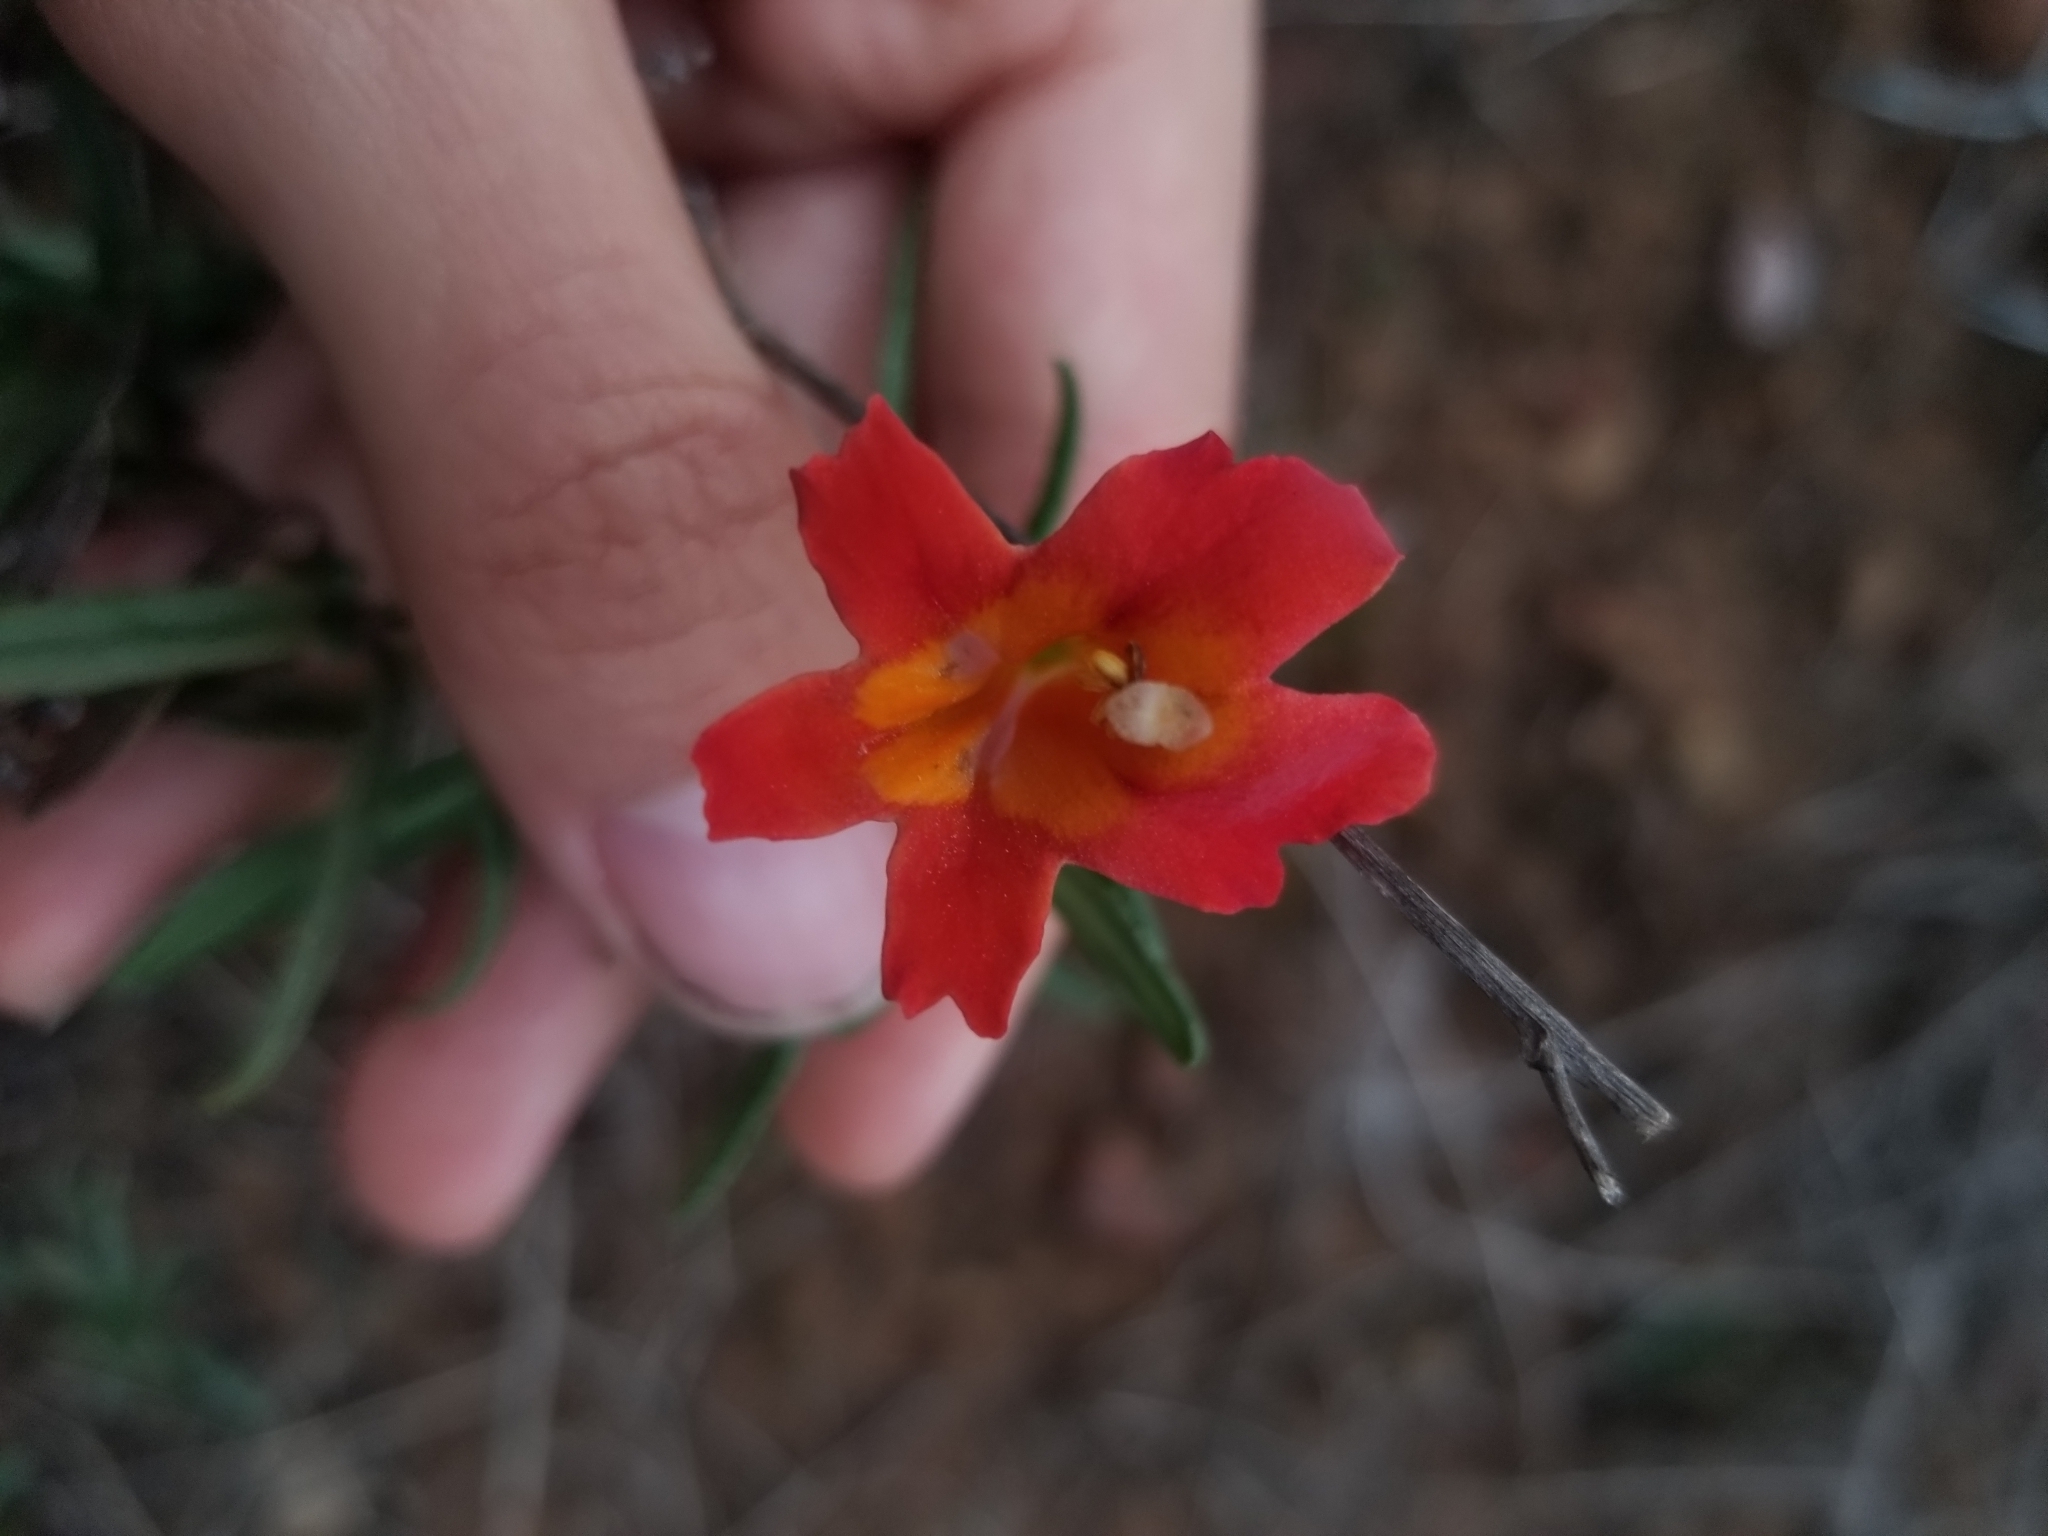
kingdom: Plantae
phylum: Tracheophyta
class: Magnoliopsida
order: Lamiales
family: Phrymaceae
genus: Diplacus
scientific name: Diplacus puniceus
